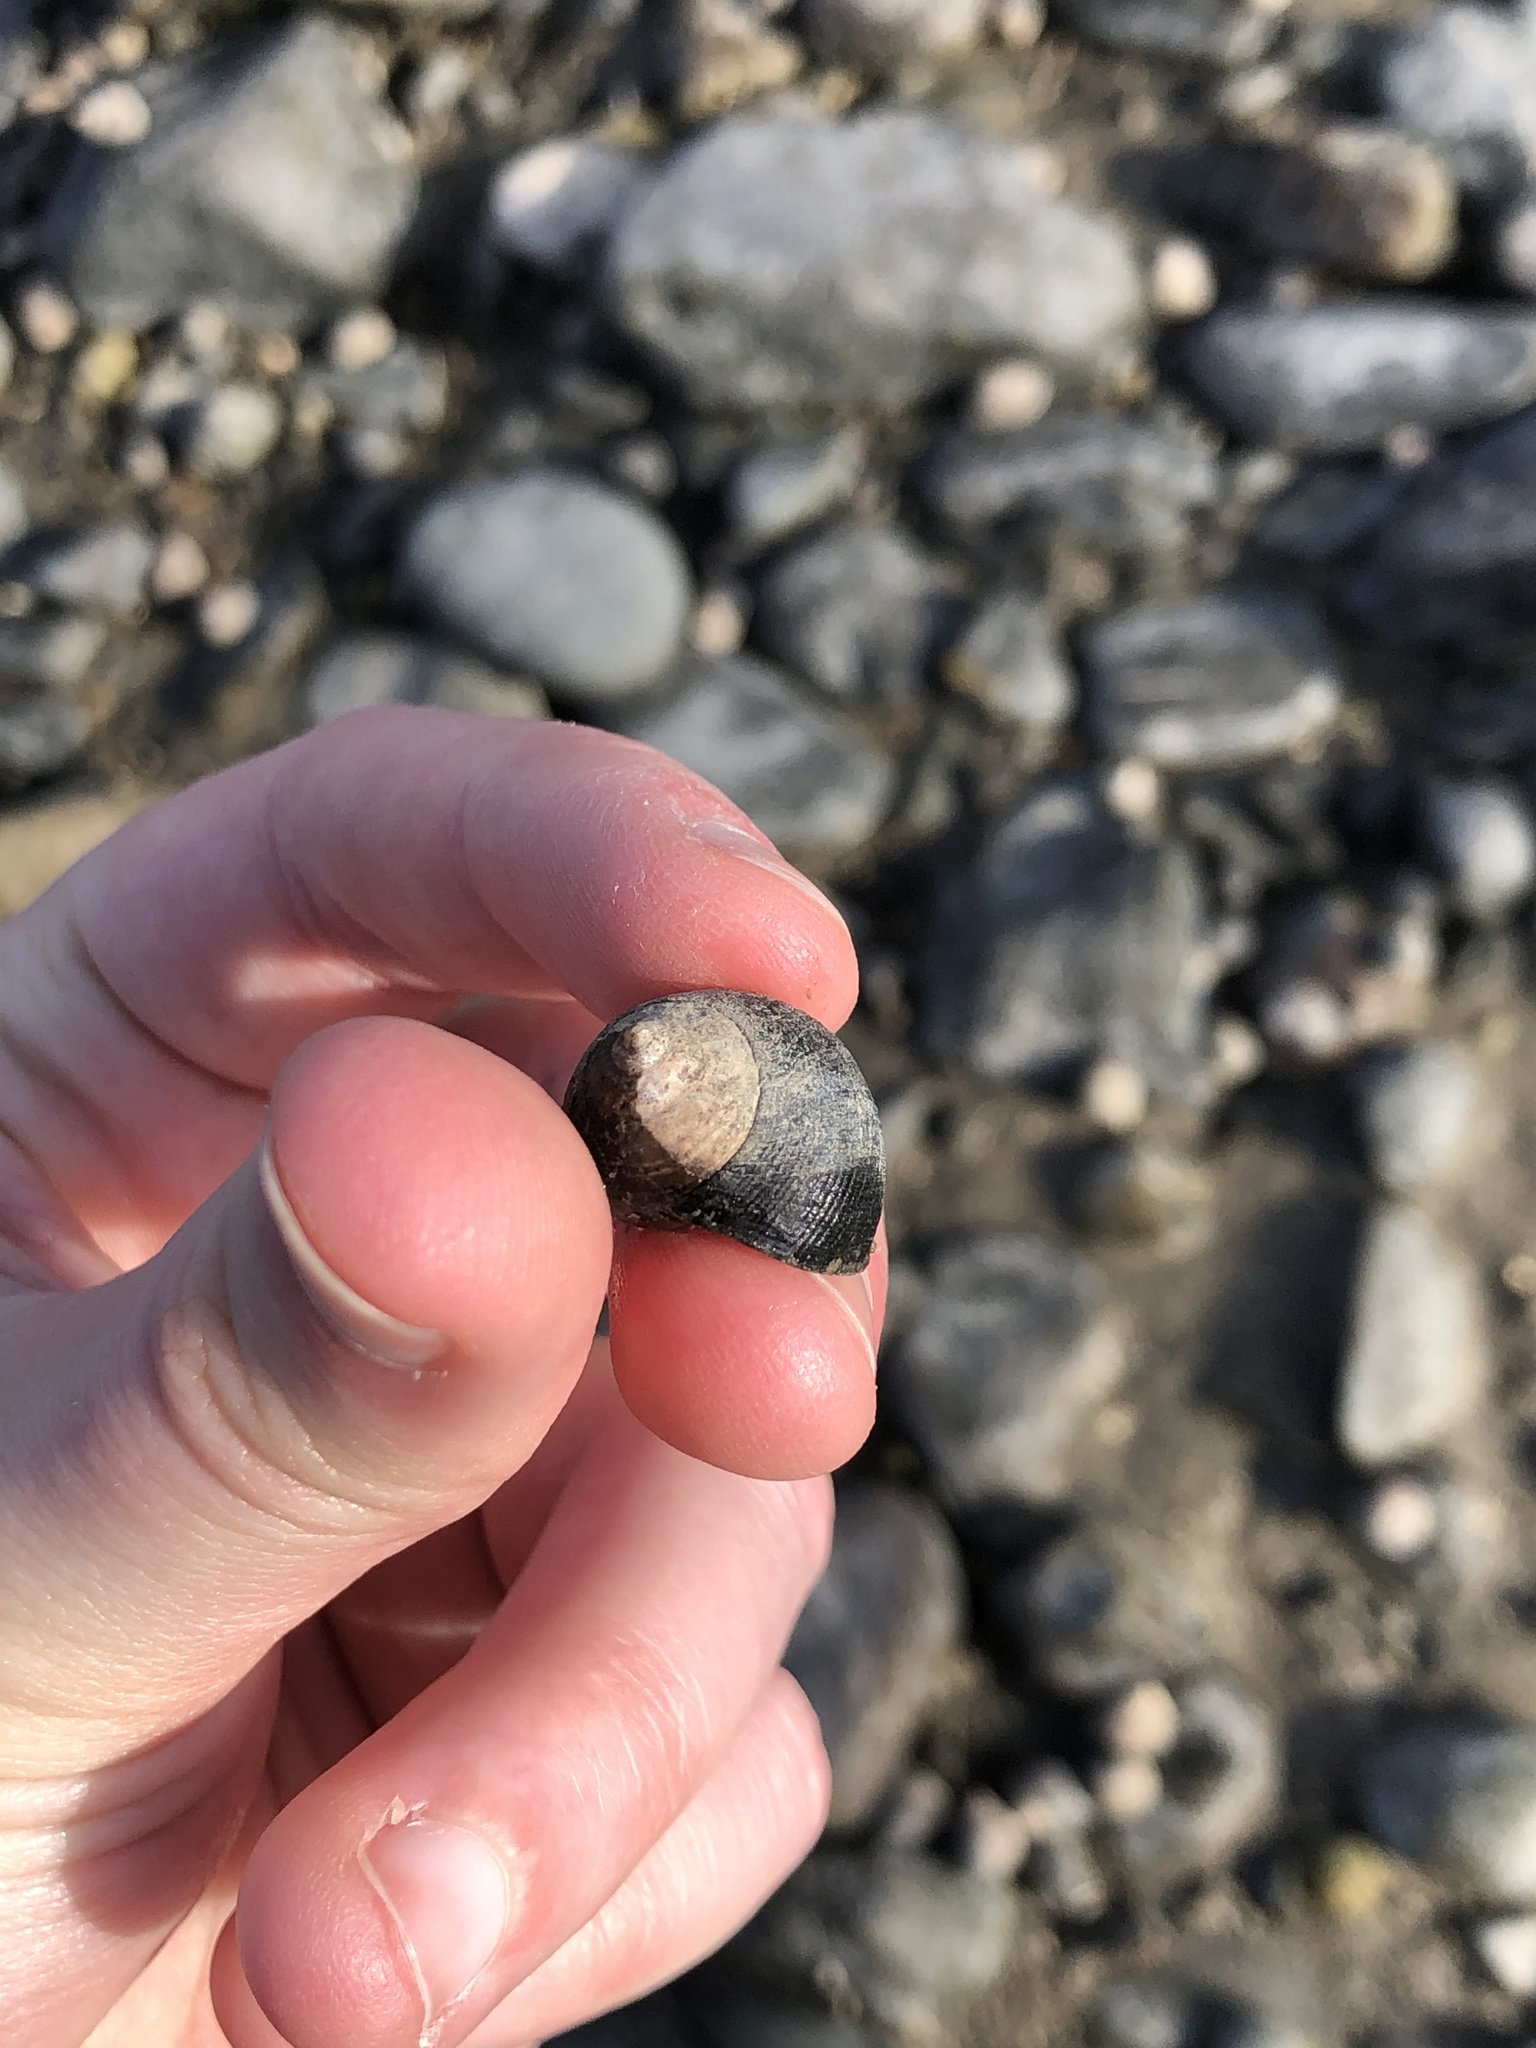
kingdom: Animalia
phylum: Mollusca
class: Gastropoda
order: Littorinimorpha
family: Littorinidae
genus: Littorina
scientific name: Littorina littorea
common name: Common periwinkle
